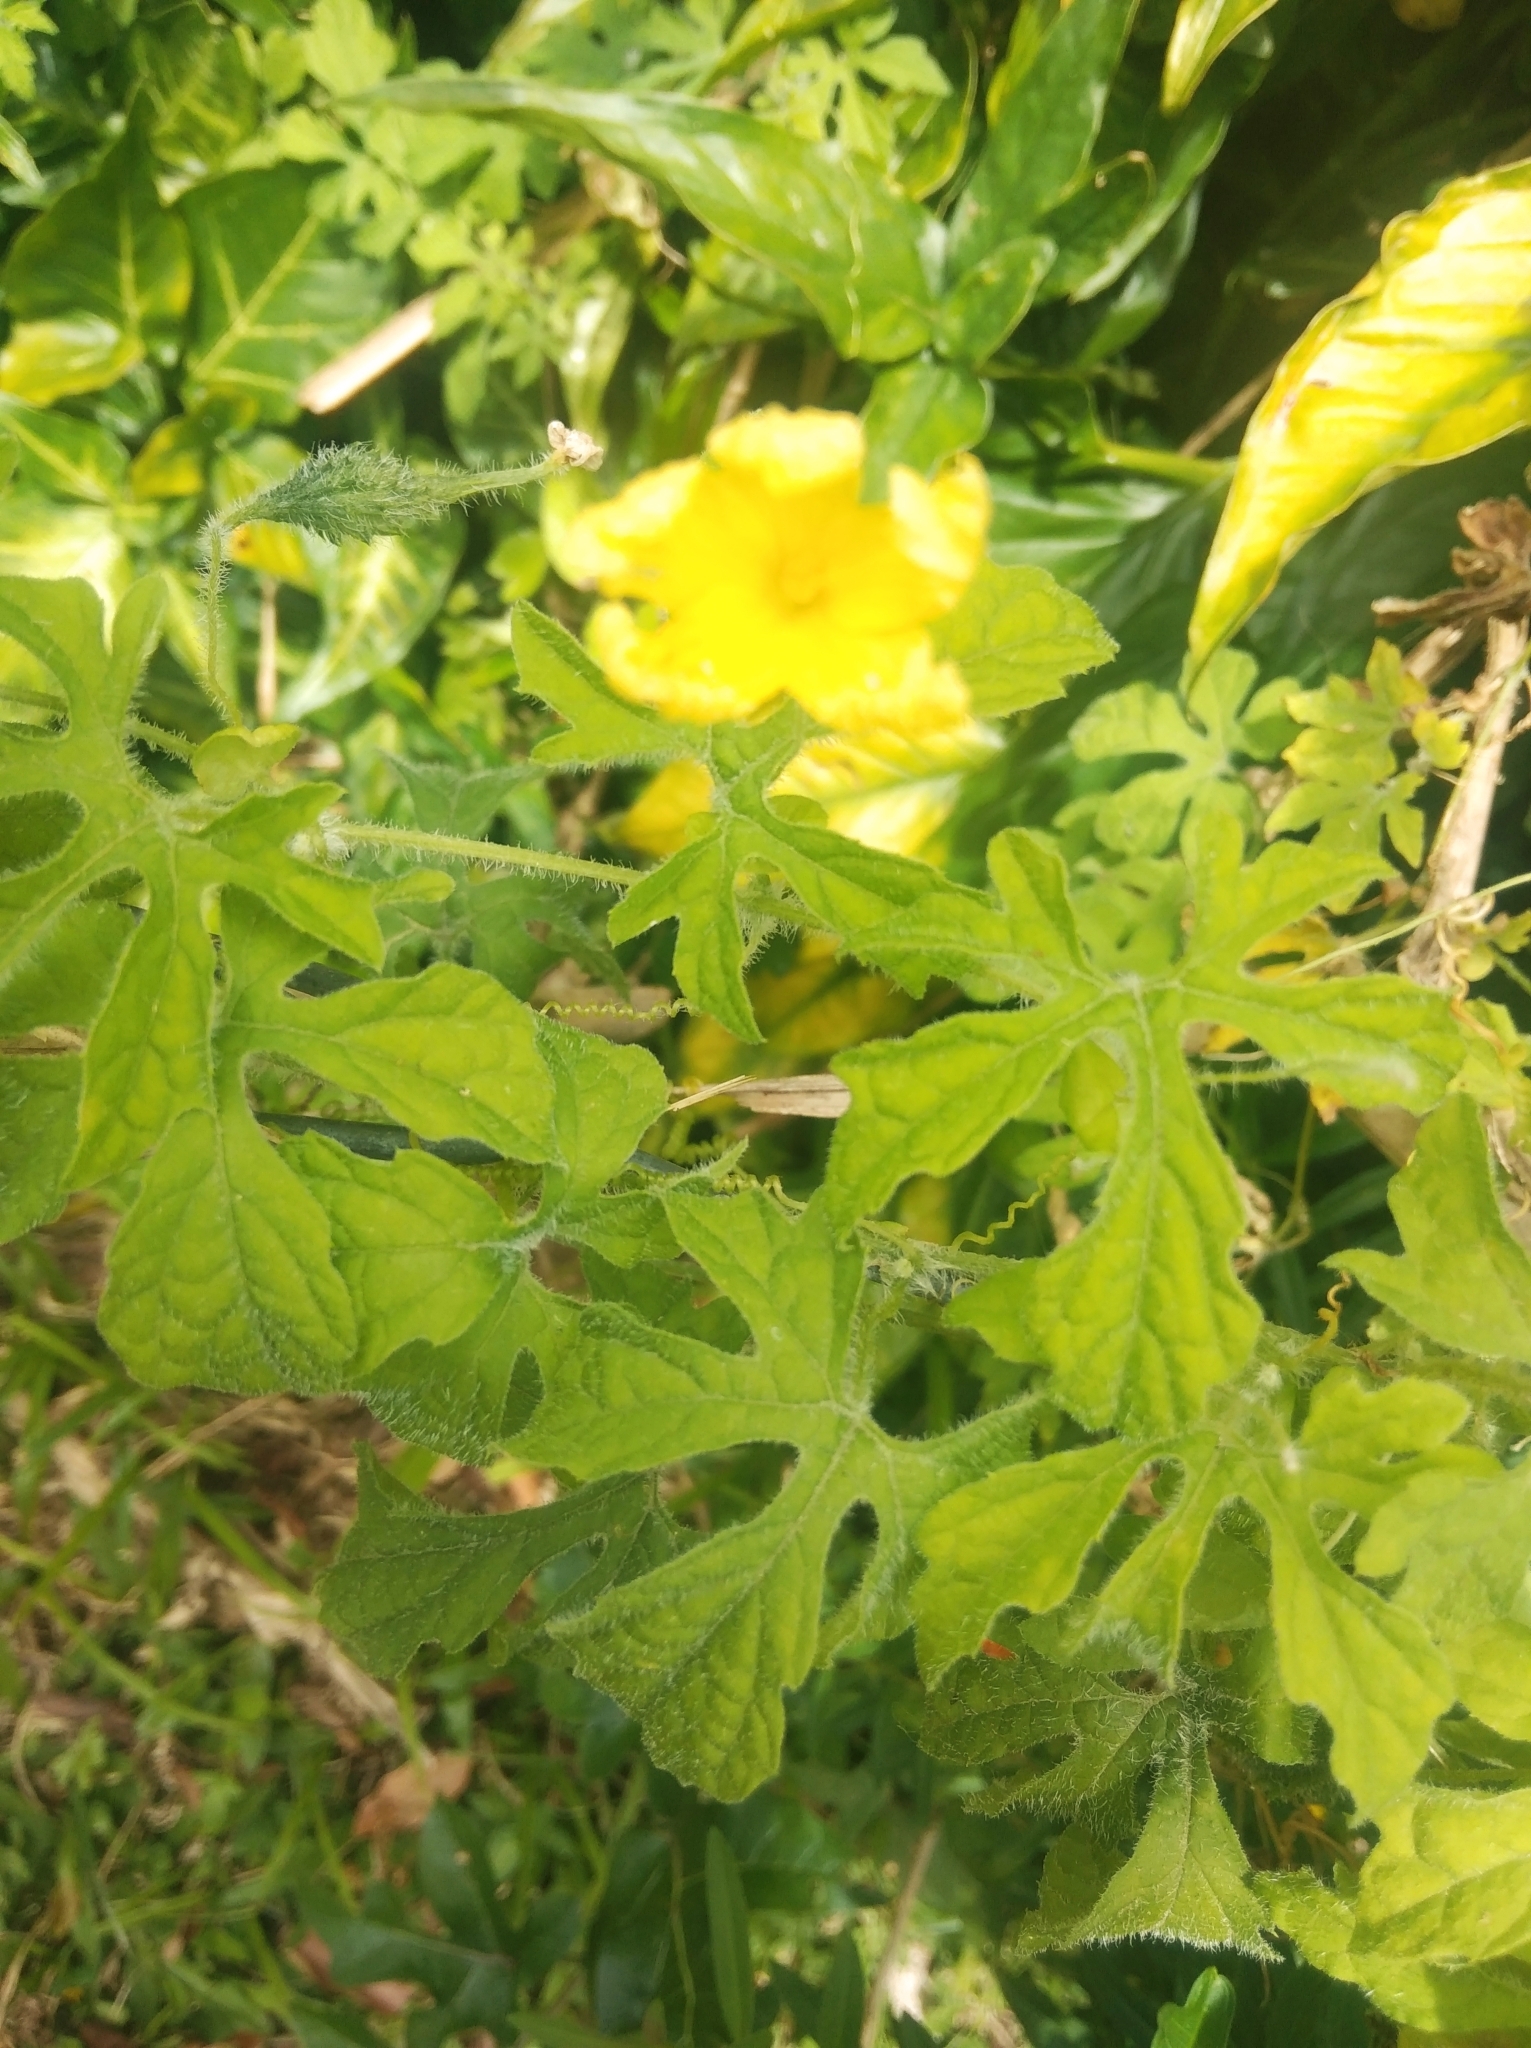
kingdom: Plantae
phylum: Tracheophyta
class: Magnoliopsida
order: Cucurbitales
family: Cucurbitaceae
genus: Momordica
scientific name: Momordica charantia
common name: Balsampear
